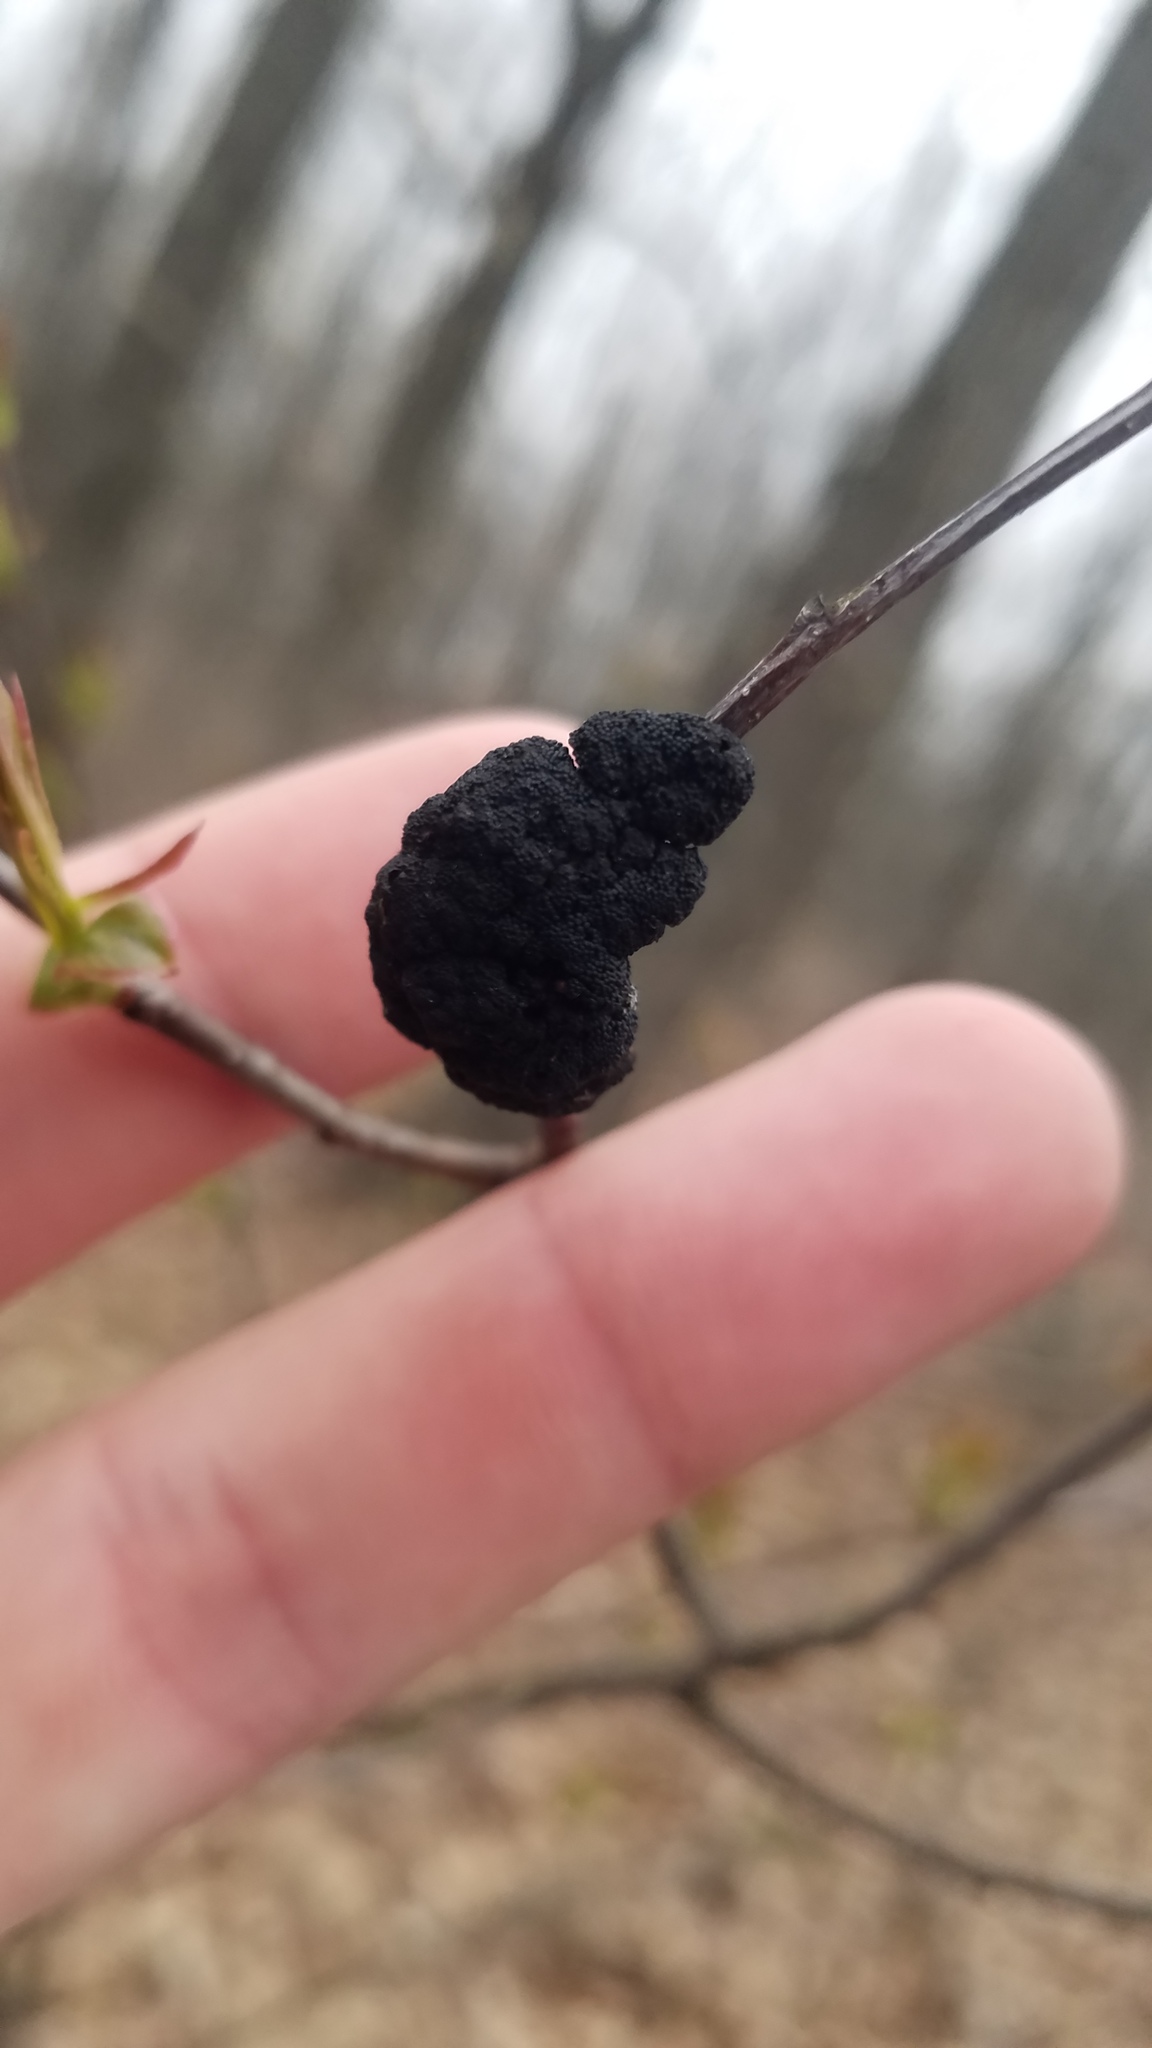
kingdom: Fungi
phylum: Ascomycota
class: Dothideomycetes
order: Venturiales
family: Venturiaceae
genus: Apiosporina
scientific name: Apiosporina morbosa
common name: Black knot
